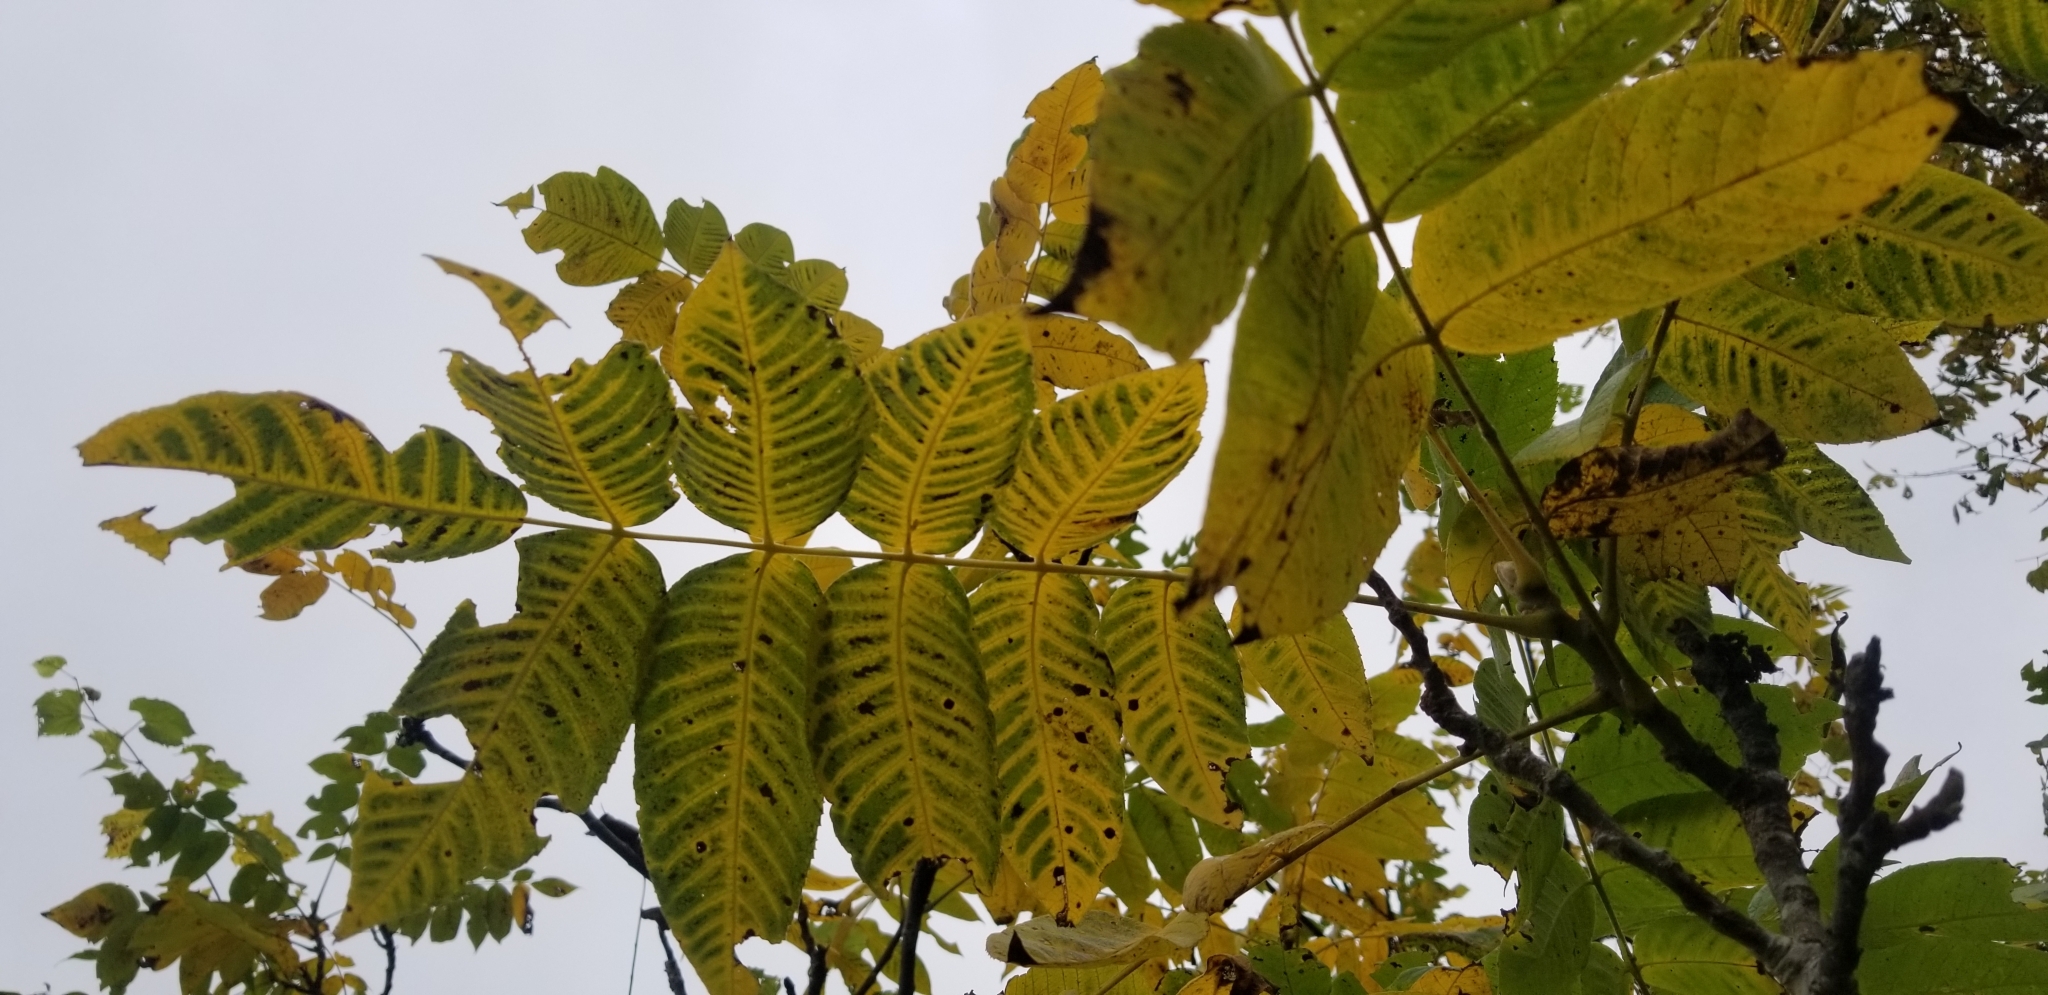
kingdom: Plantae
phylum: Tracheophyta
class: Magnoliopsida
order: Fagales
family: Juglandaceae
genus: Juglans
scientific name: Juglans cinerea
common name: Butternut
